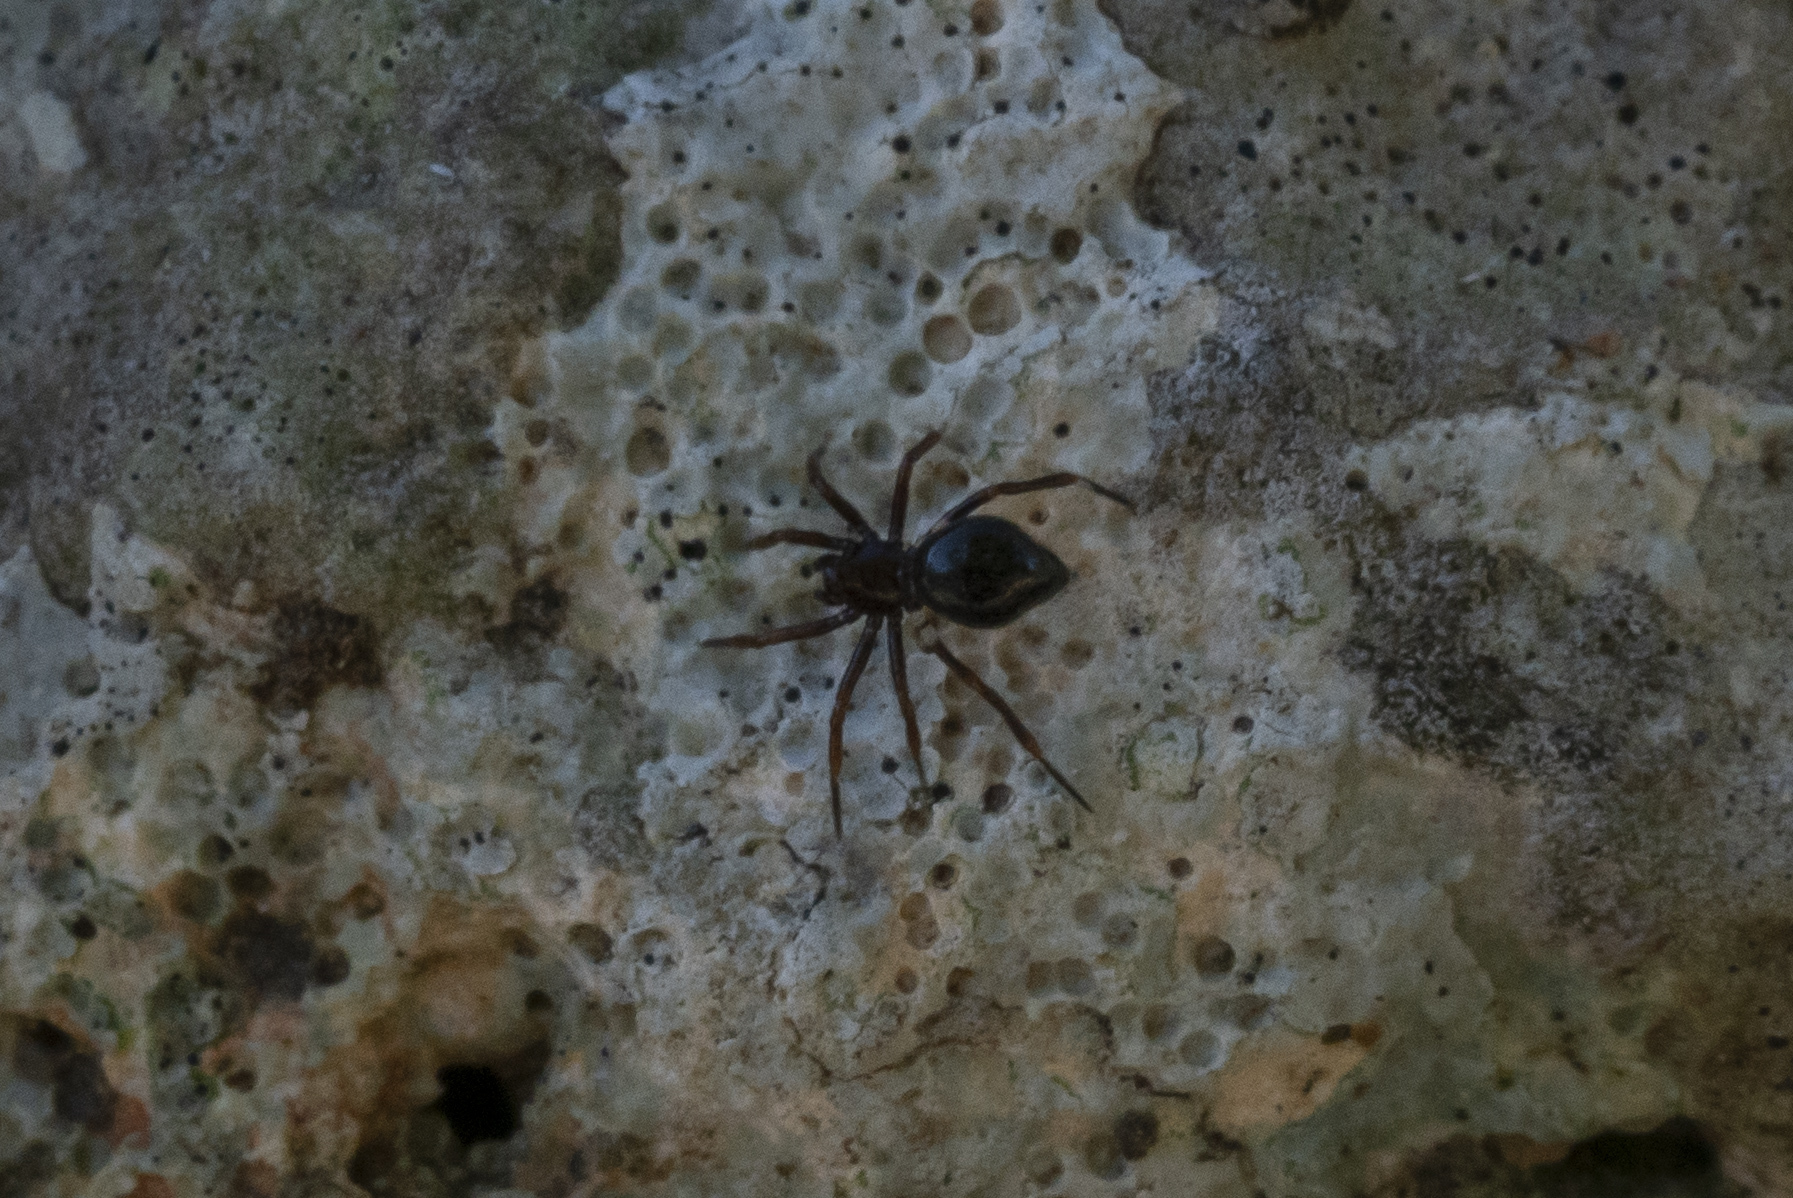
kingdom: Animalia
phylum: Arthropoda
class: Arachnida
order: Araneae
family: Theridiidae
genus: Euryopis
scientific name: Euryopis episinoides
